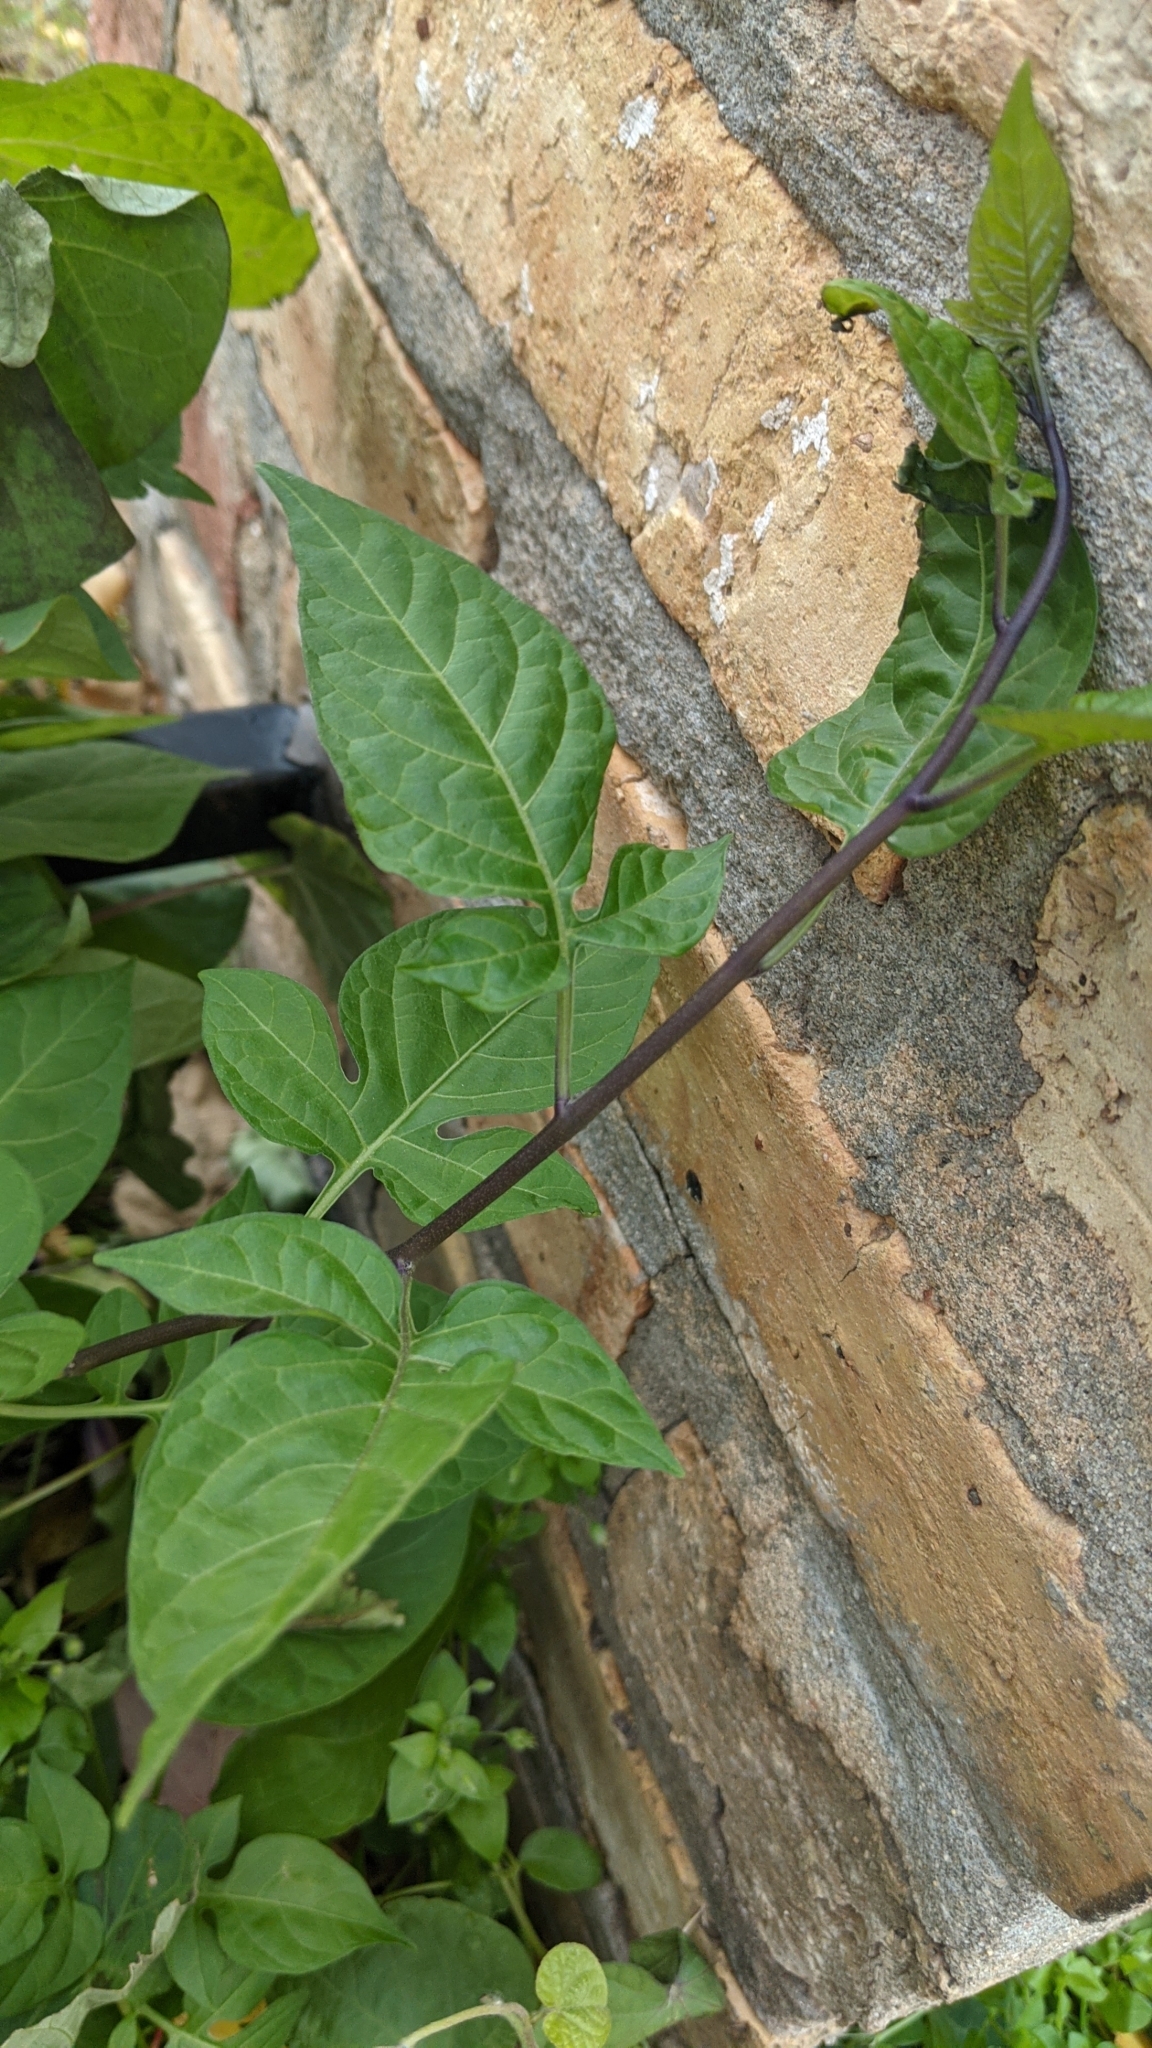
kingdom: Plantae
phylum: Tracheophyta
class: Magnoliopsida
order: Solanales
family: Solanaceae
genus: Solanum
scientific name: Solanum dulcamara
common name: Climbing nightshade
